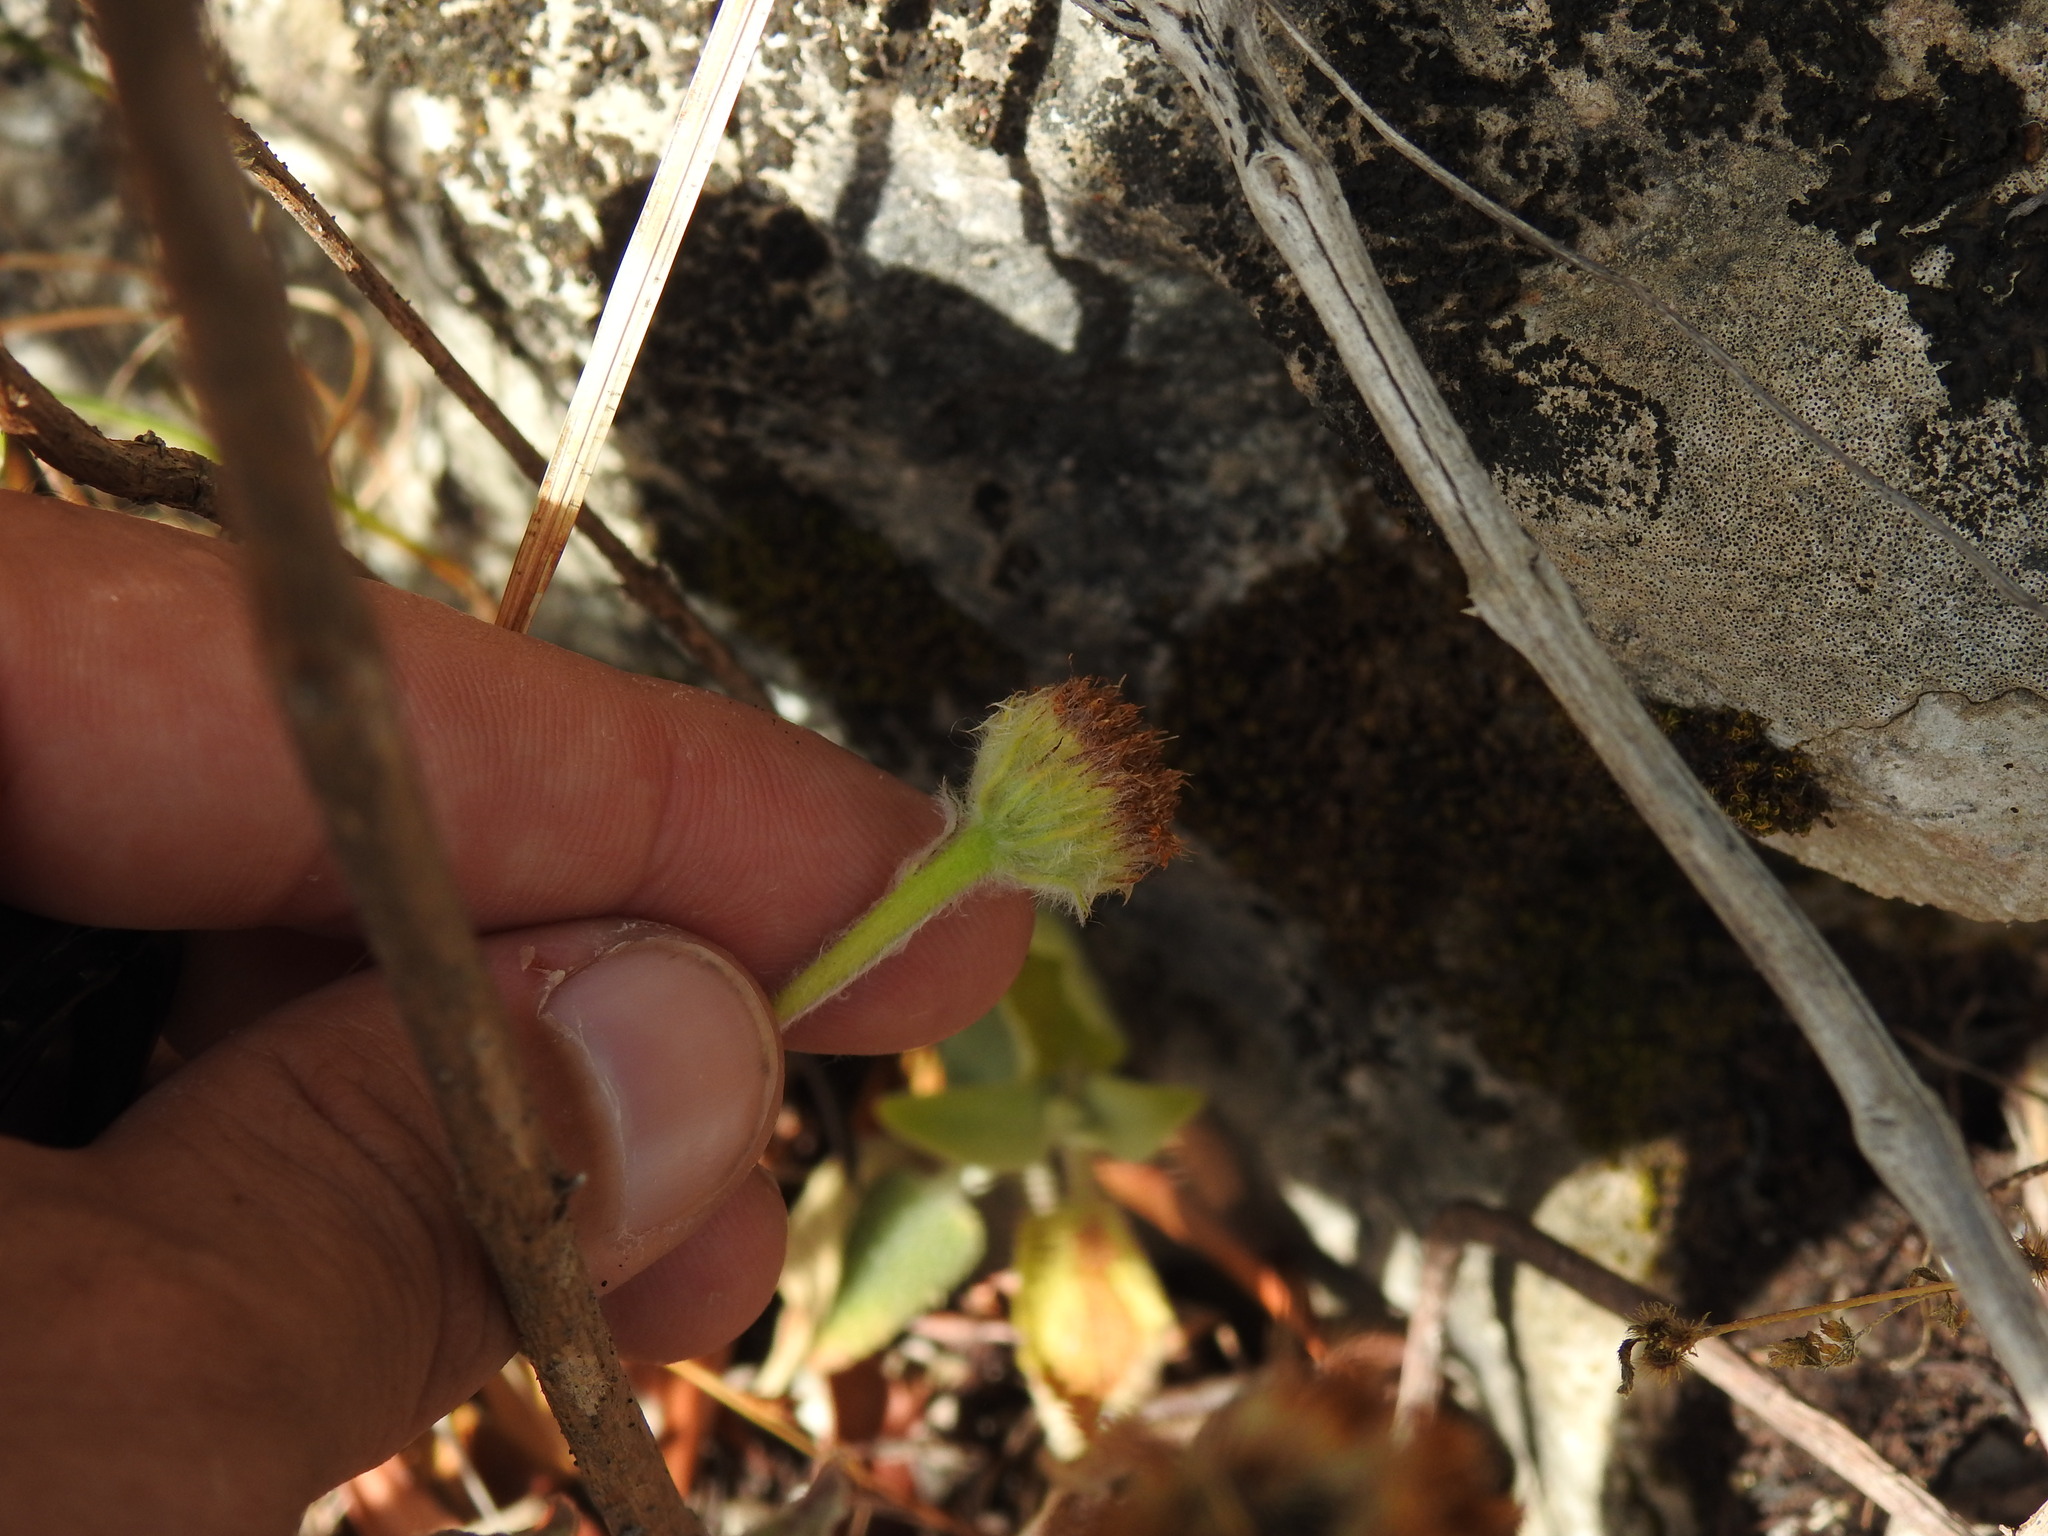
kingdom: Plantae
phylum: Tracheophyta
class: Magnoliopsida
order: Asterales
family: Asteraceae
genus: Pulicaria
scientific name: Pulicaria odora
